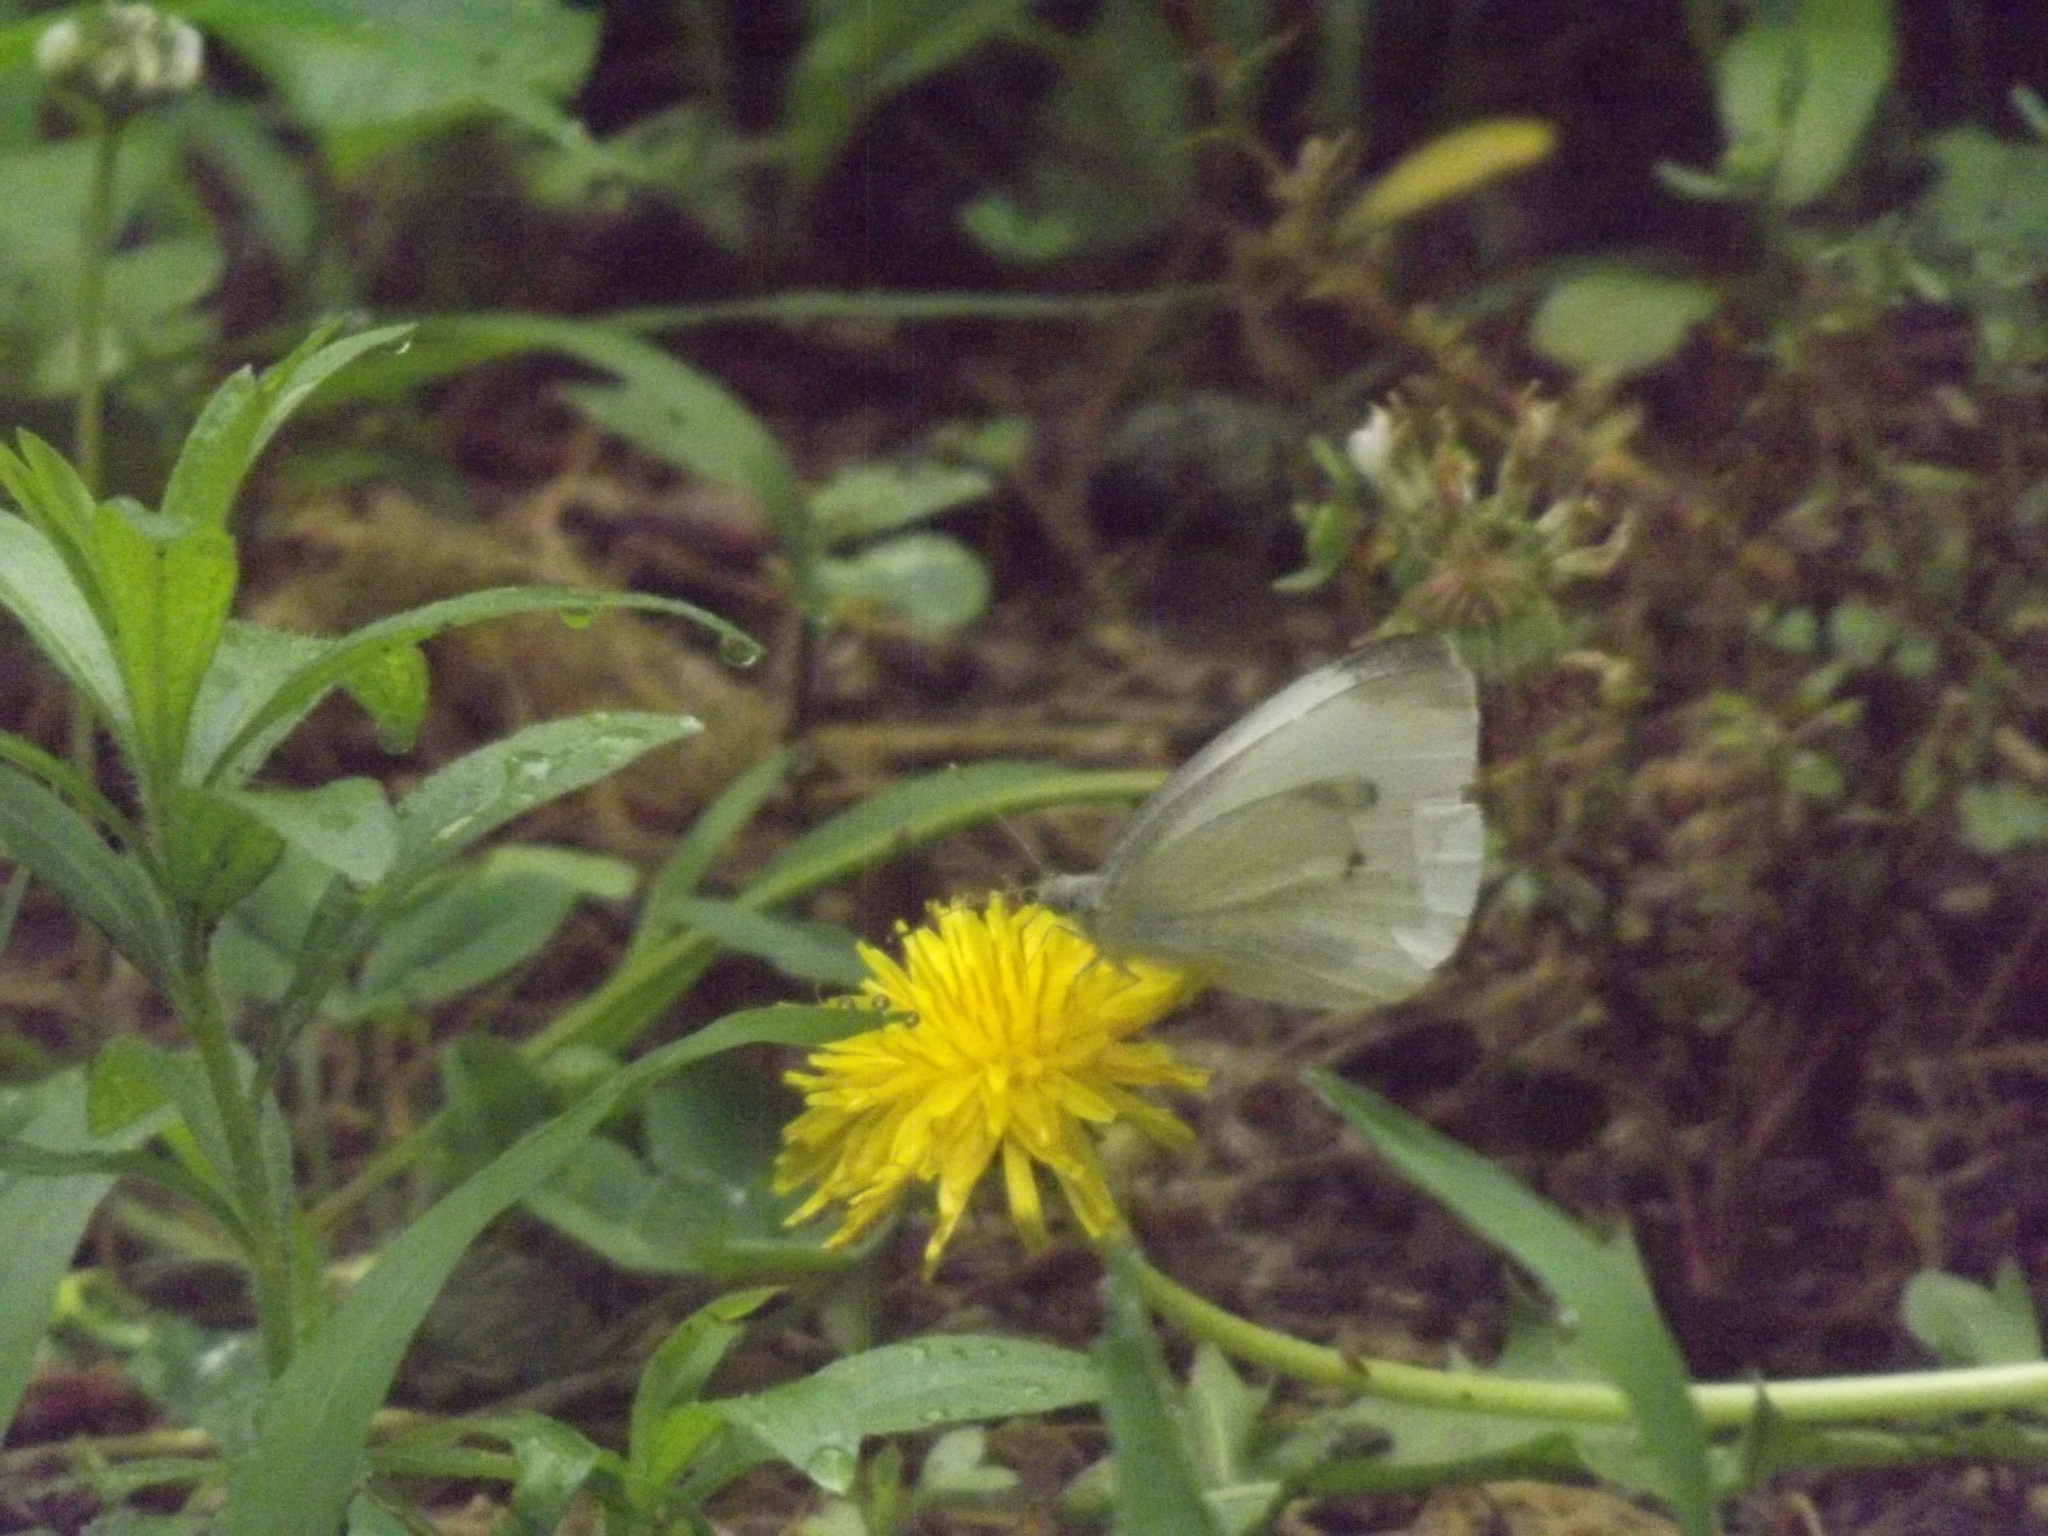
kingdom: Animalia
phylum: Arthropoda
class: Insecta
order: Lepidoptera
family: Pieridae
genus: Pieris
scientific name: Pieris rapae
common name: Small white
